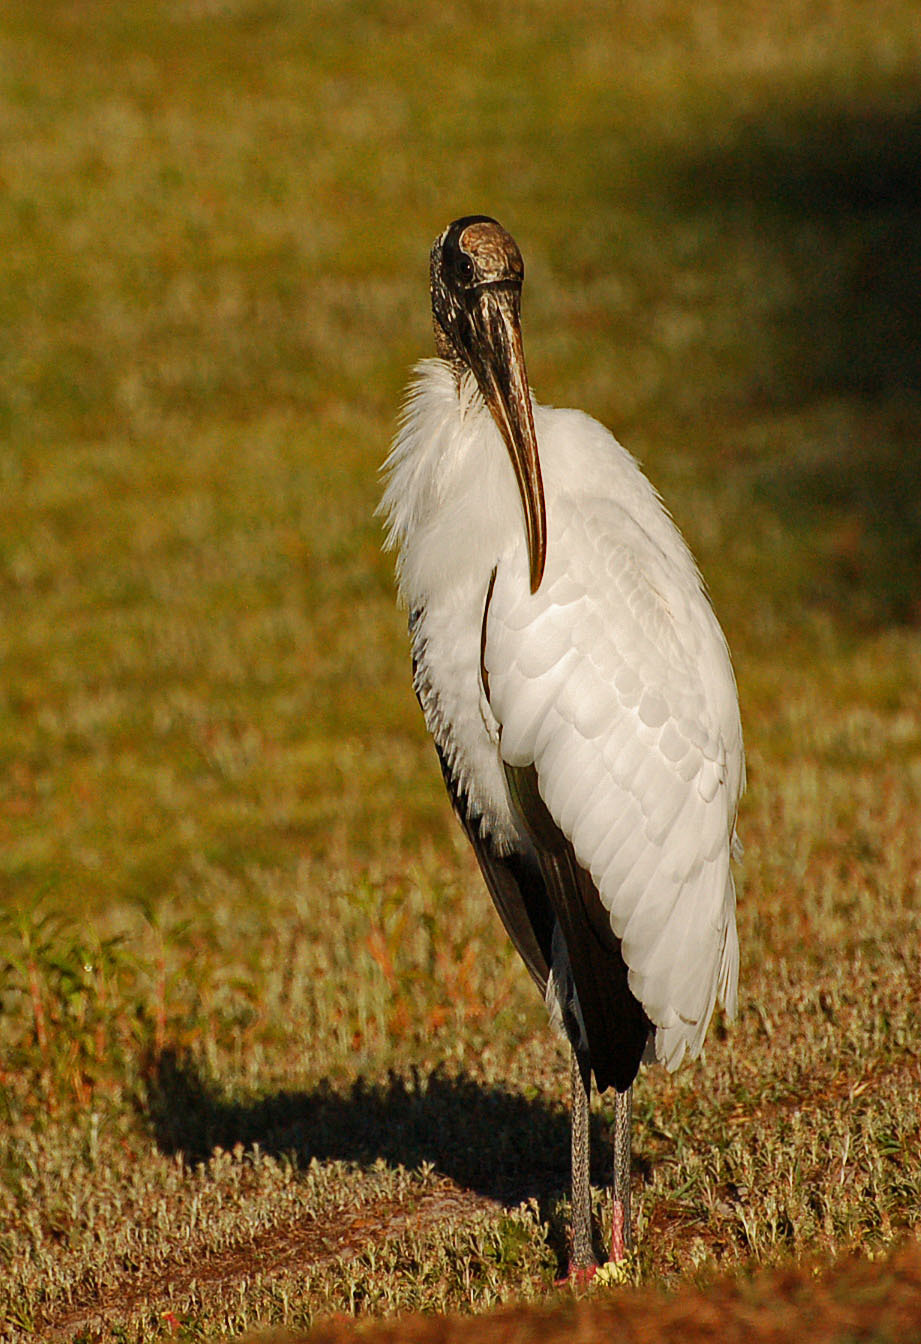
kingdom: Animalia
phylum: Chordata
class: Aves
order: Ciconiiformes
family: Ciconiidae
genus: Mycteria
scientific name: Mycteria americana
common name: Wood stork
